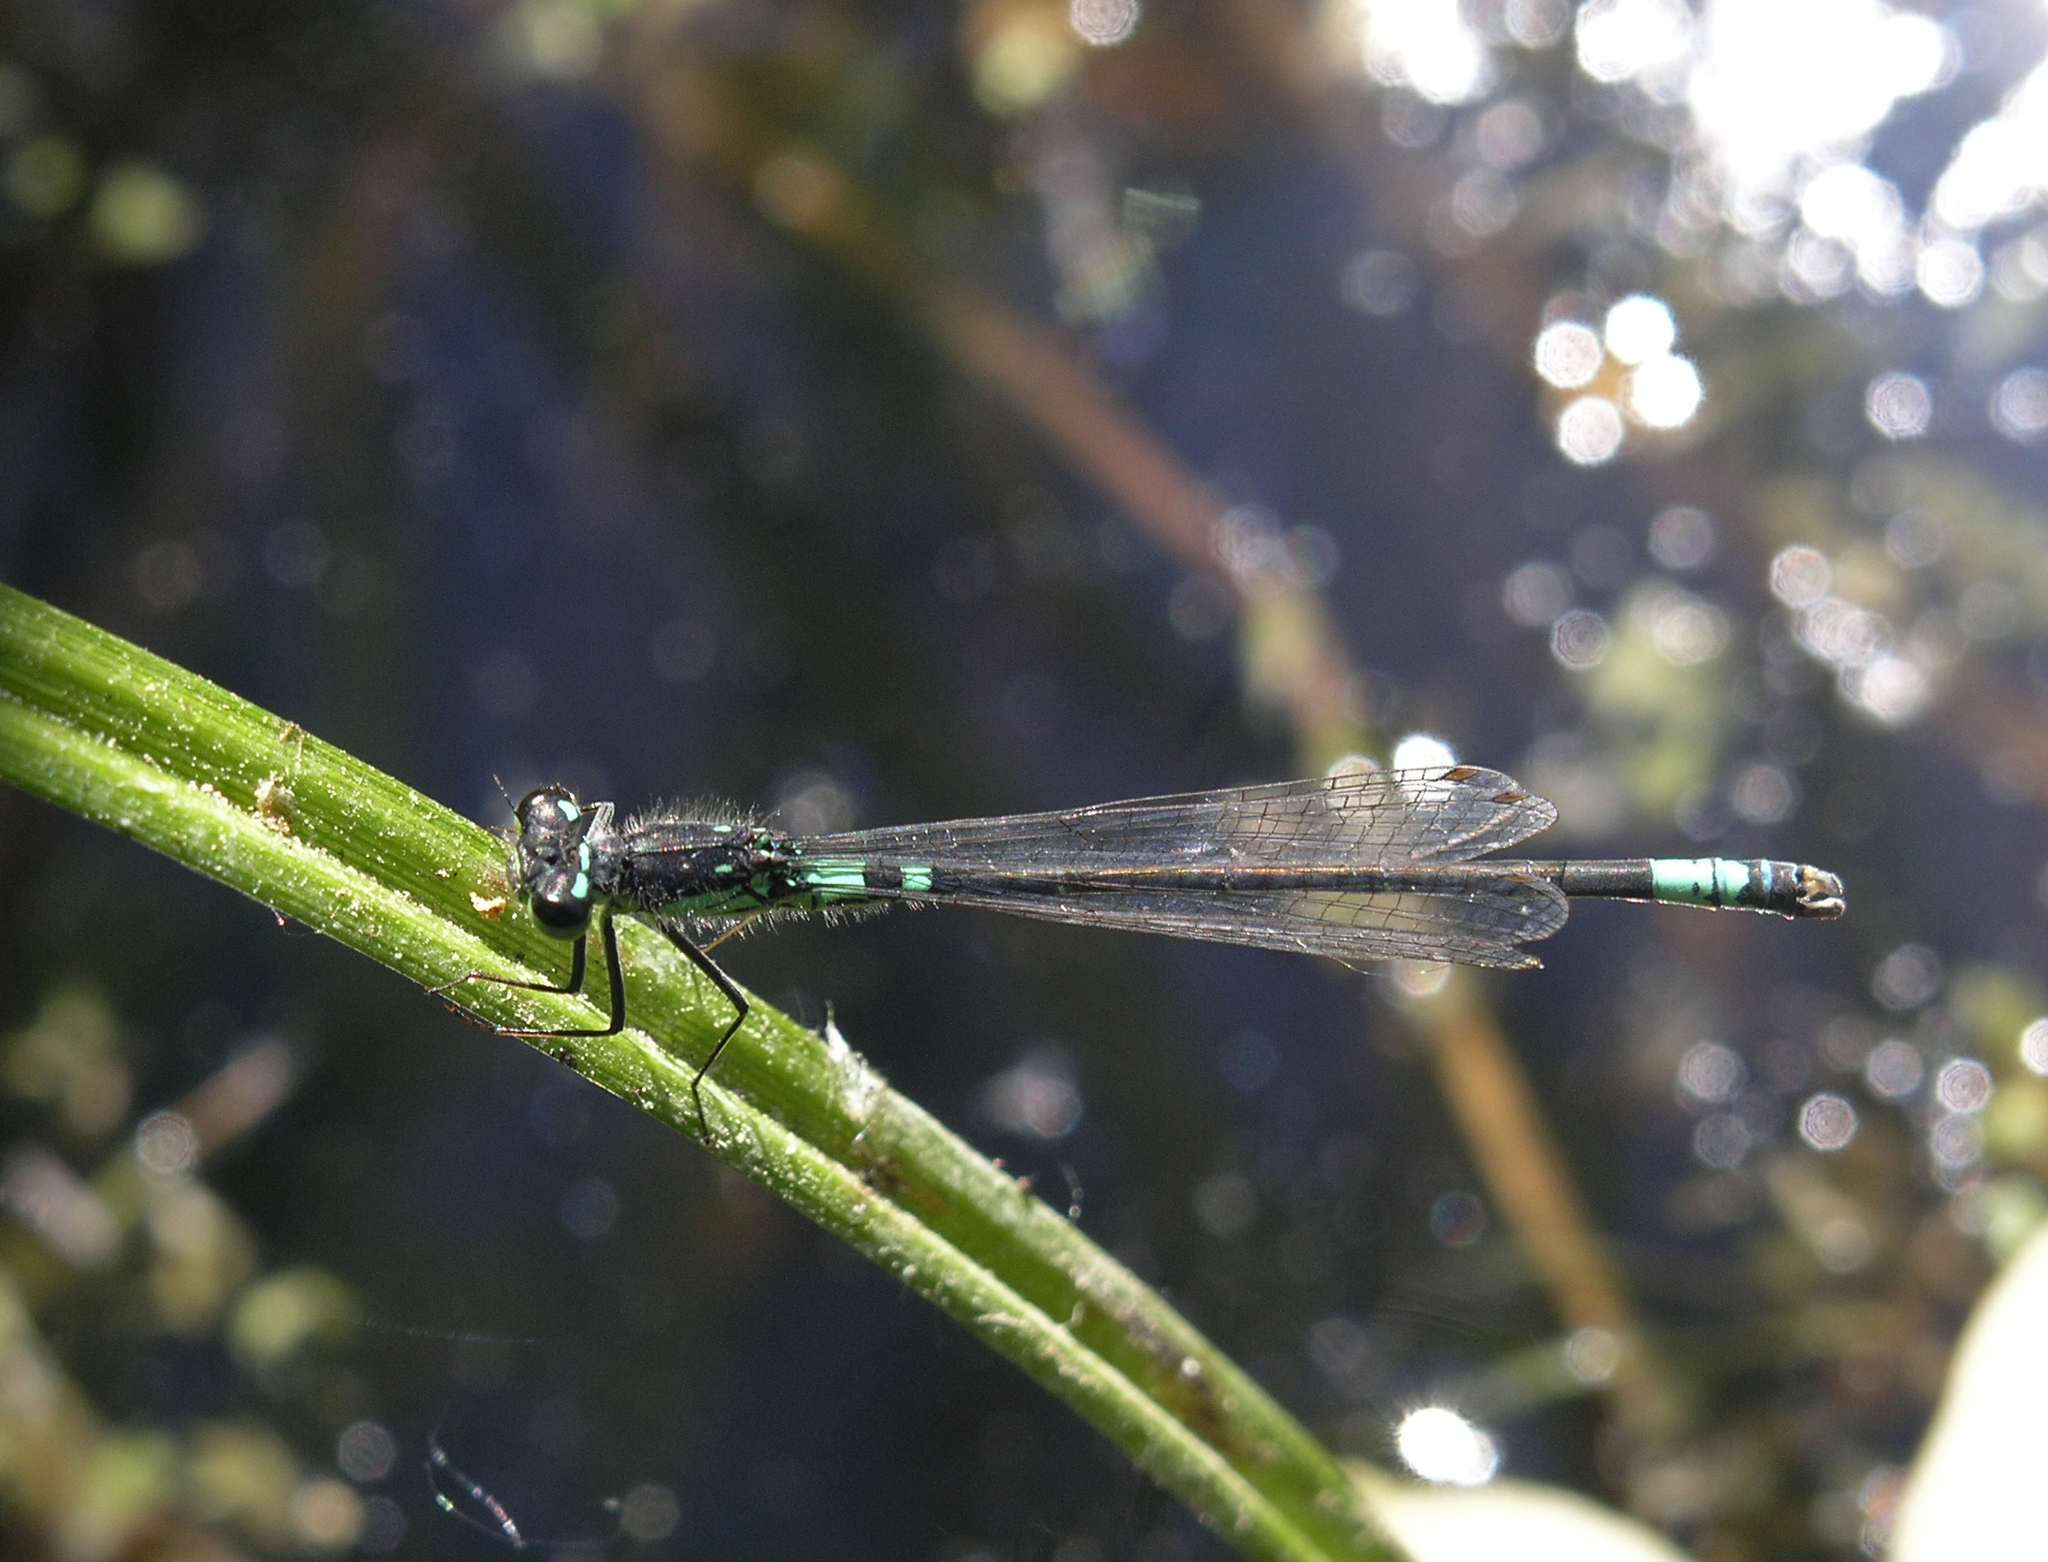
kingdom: Animalia
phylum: Arthropoda
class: Insecta
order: Odonata
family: Coenagrionidae
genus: Coenagrion
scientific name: Coenagrion armatum
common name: Dark bluet
